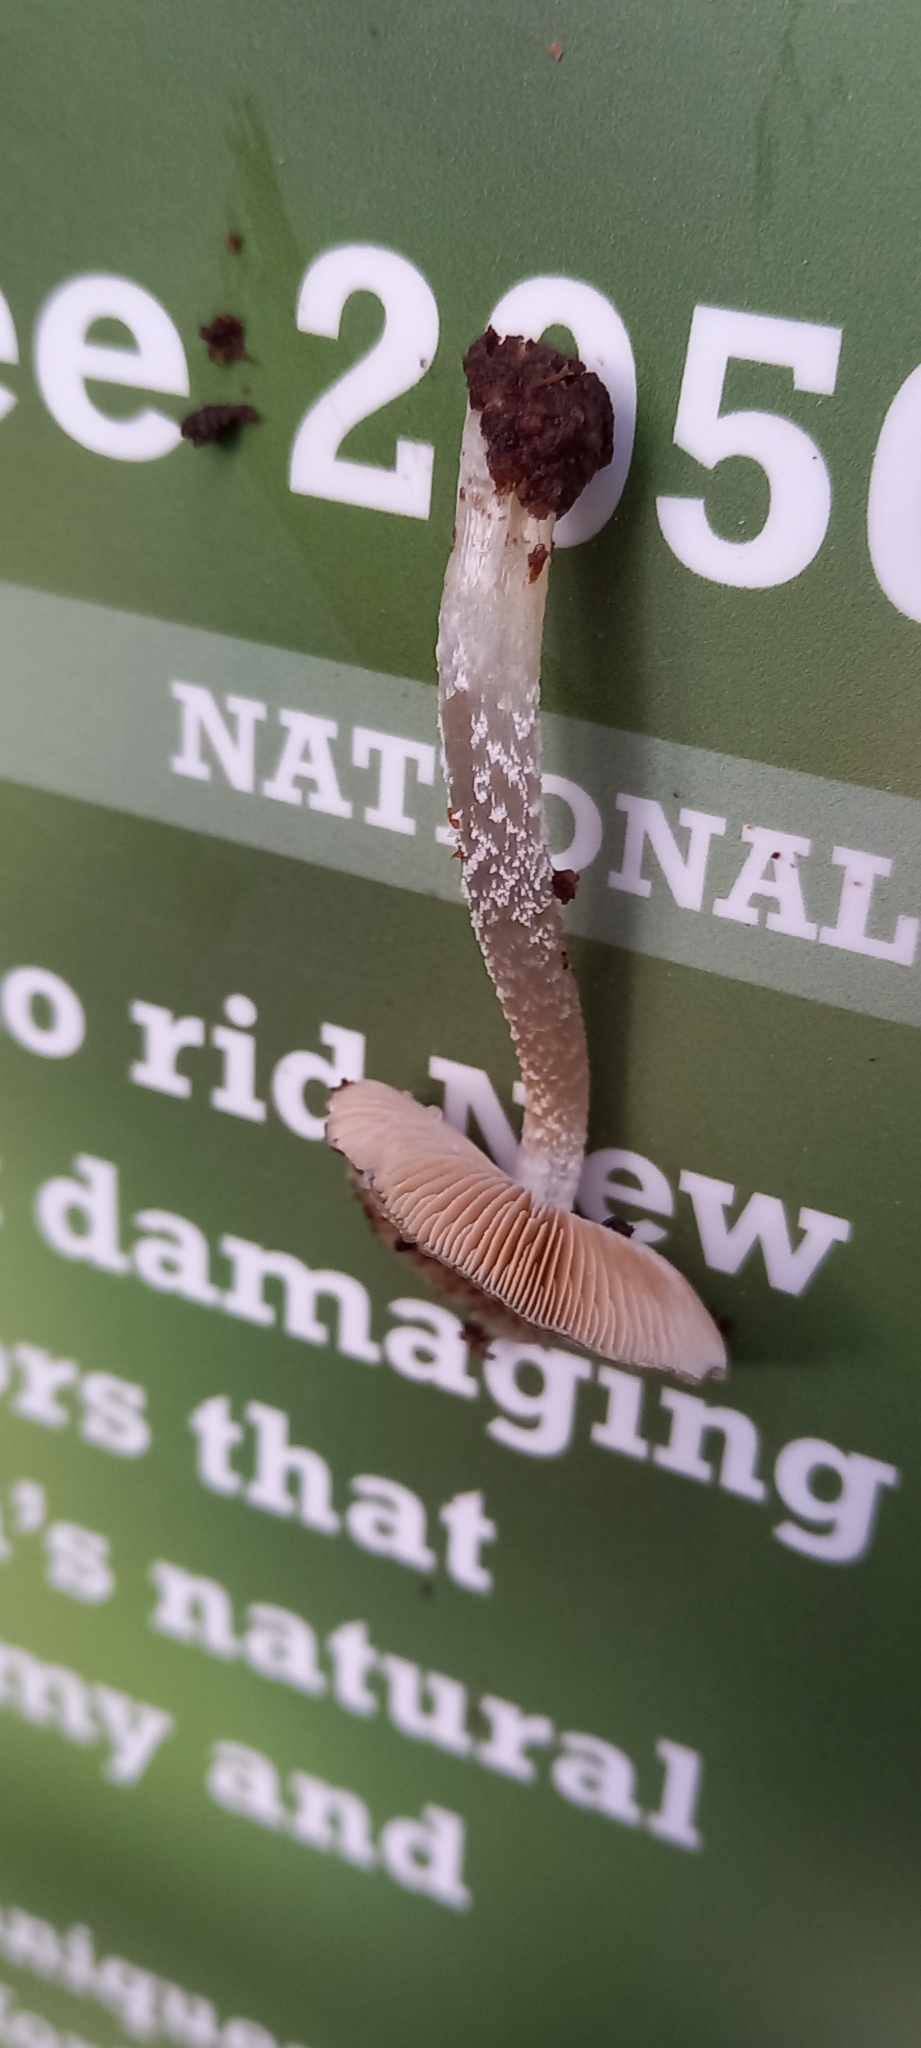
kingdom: Fungi
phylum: Basidiomycota
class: Agaricomycetes
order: Agaricales
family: Bolbitiaceae
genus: Bolbitius
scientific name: Bolbitius muscicola
